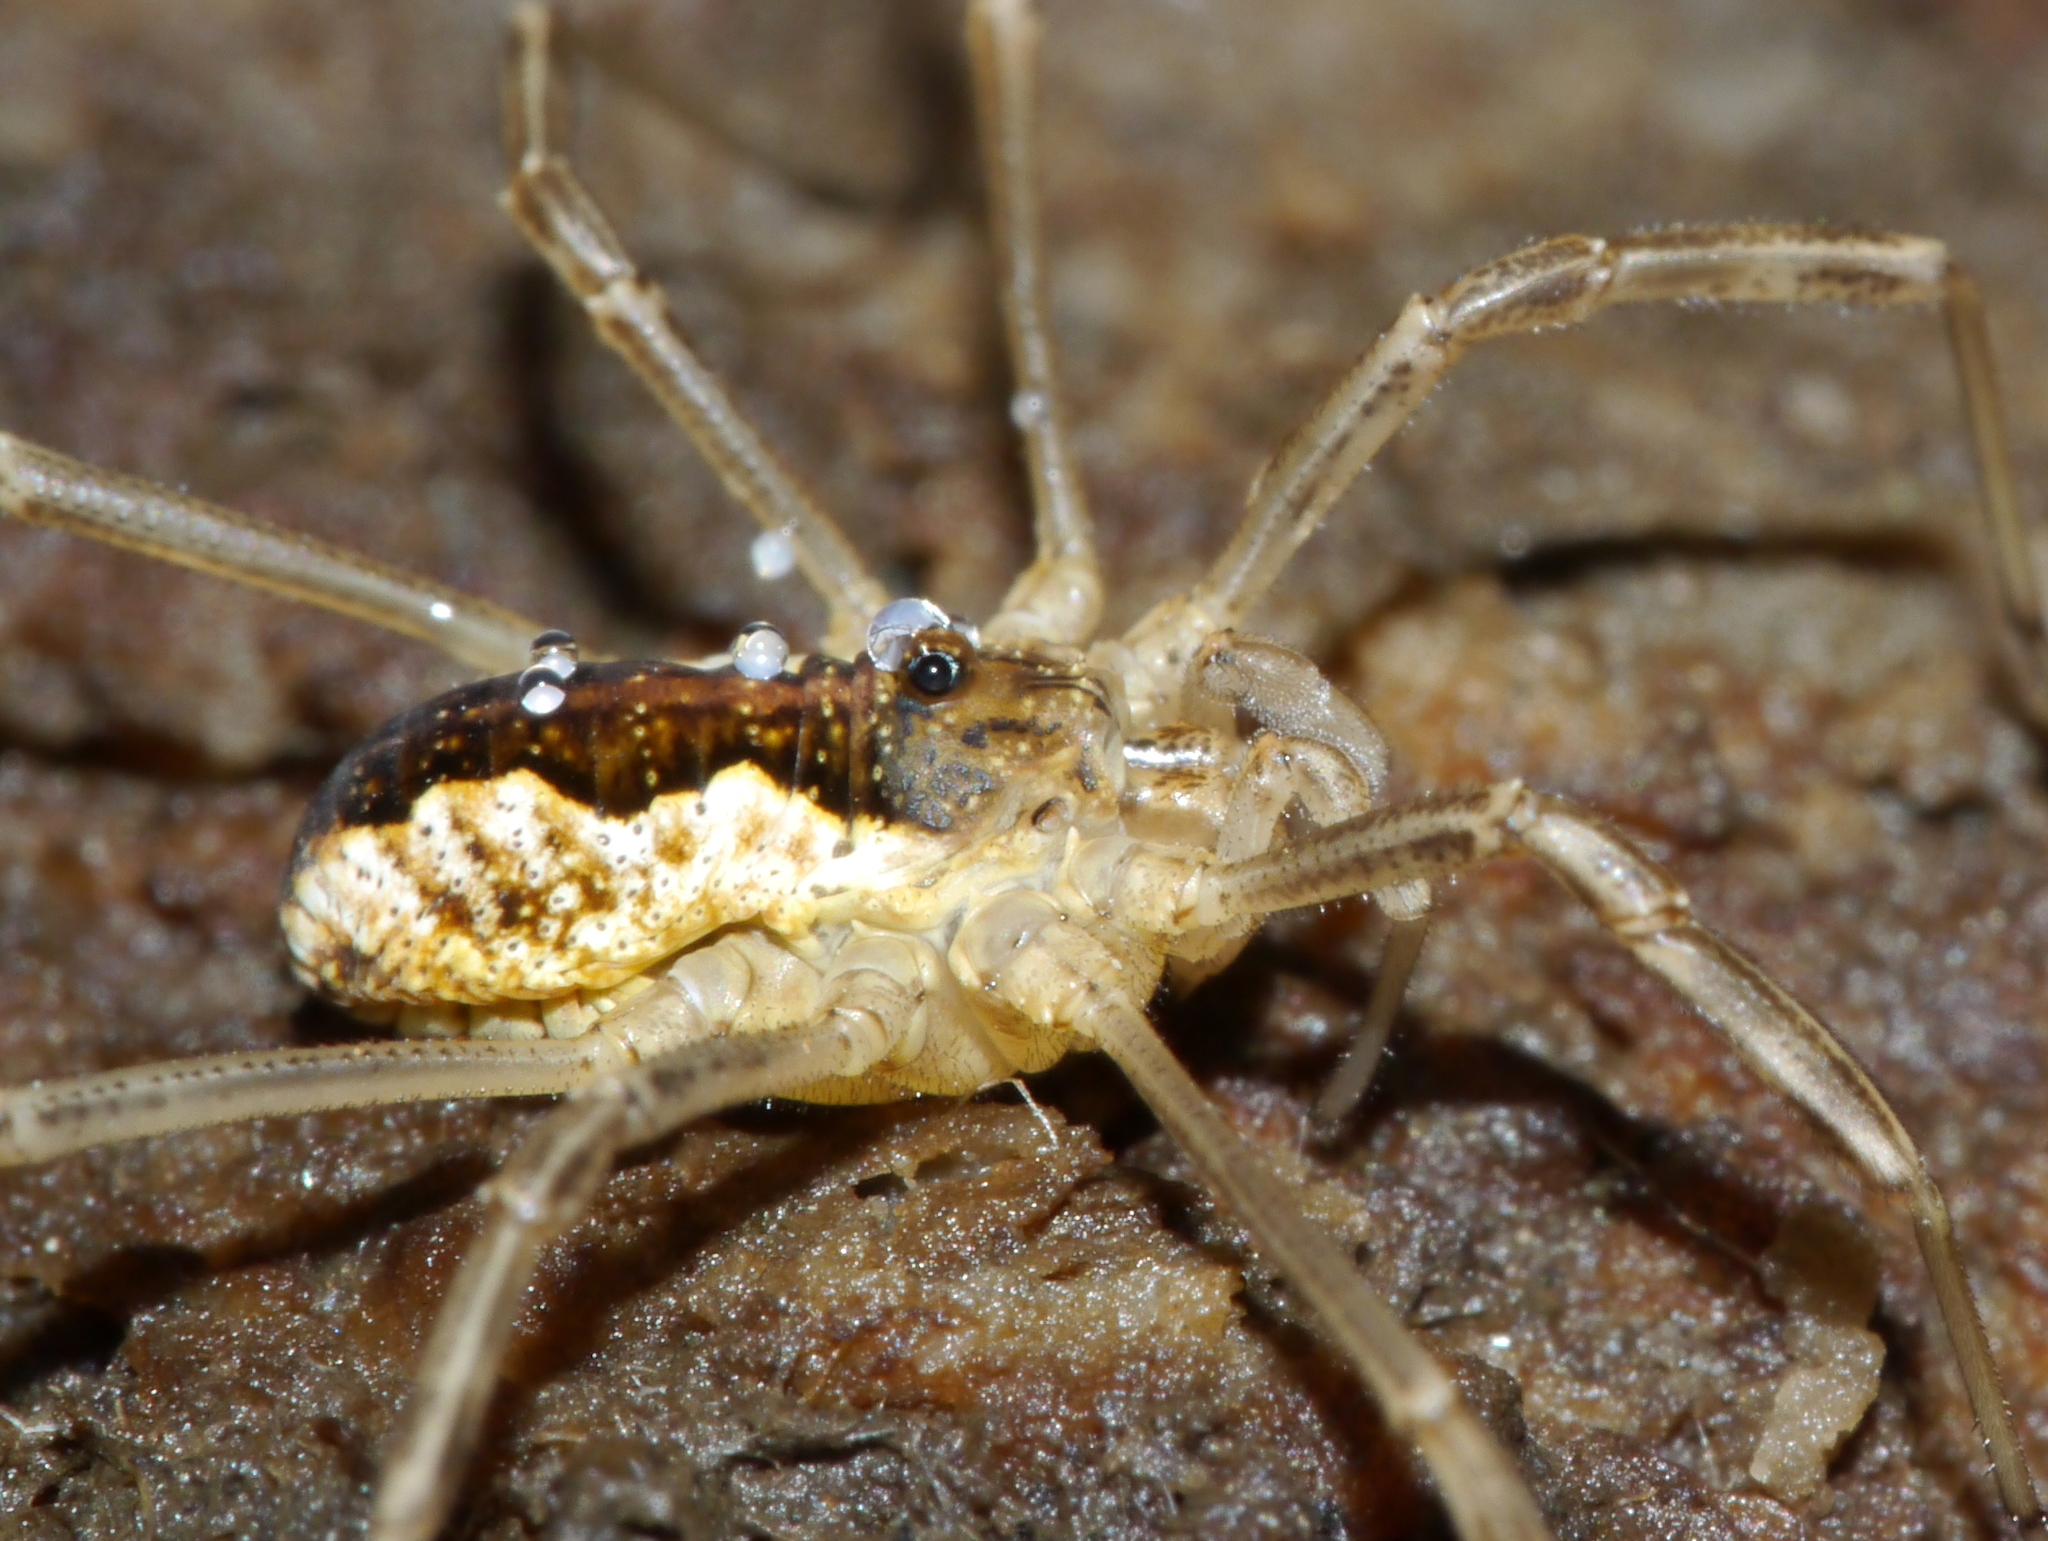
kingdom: Animalia
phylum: Arthropoda
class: Arachnida
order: Opiliones
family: Phalangiidae
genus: Mitopus
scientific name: Mitopus morio
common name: Saddleback harvestman
